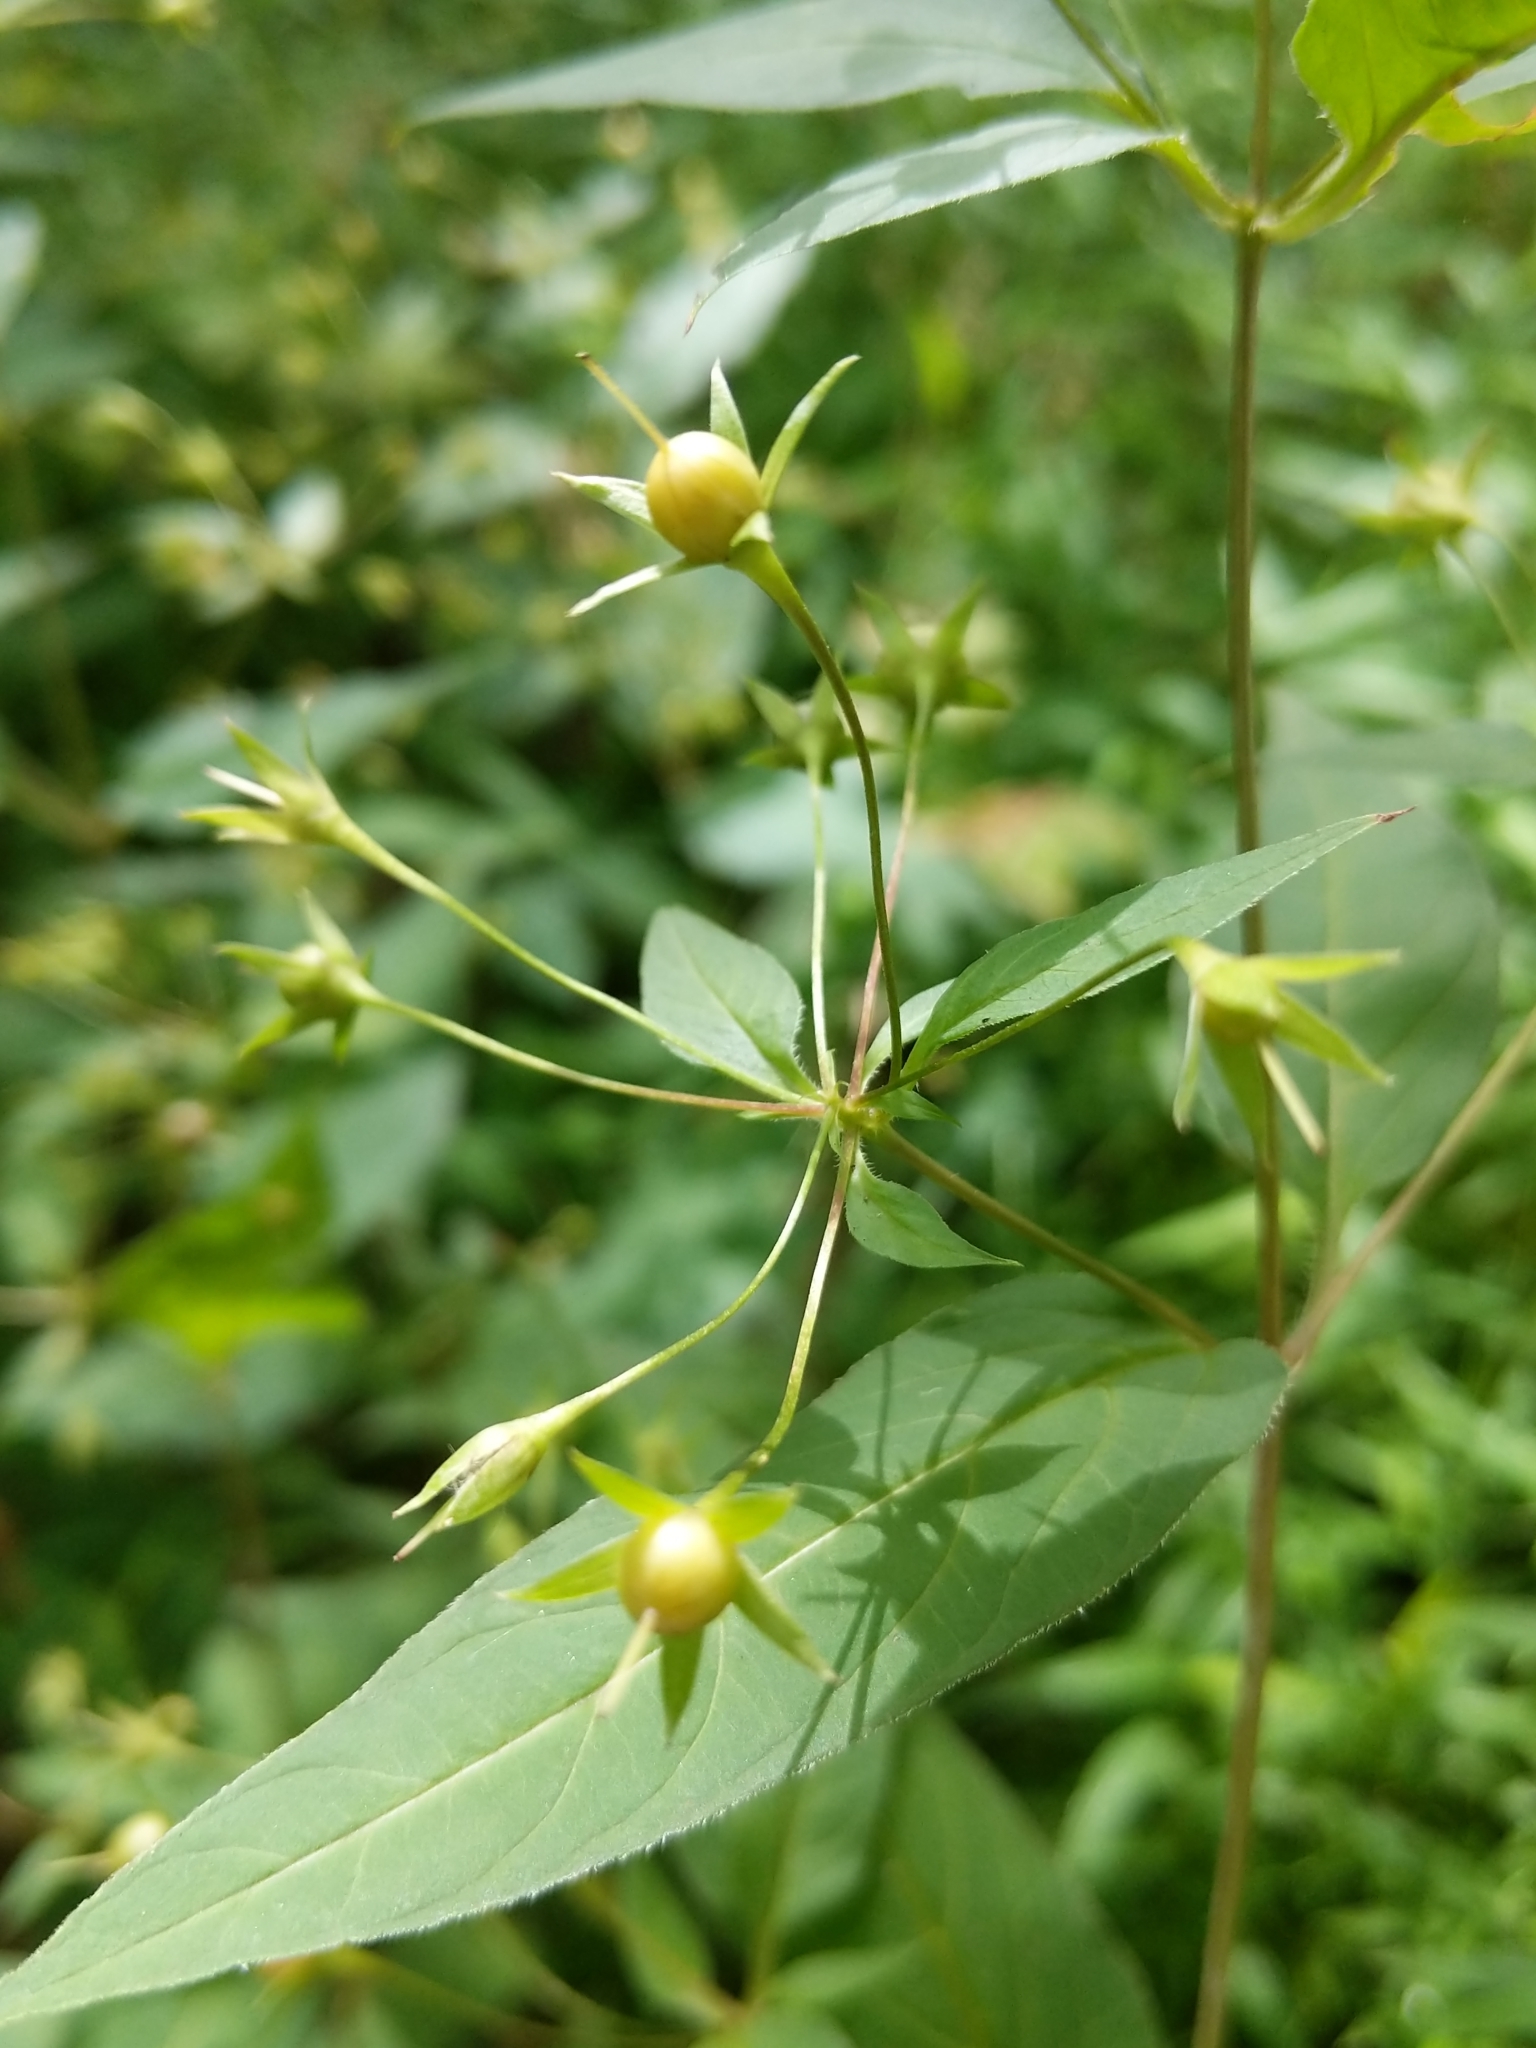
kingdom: Plantae
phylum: Tracheophyta
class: Magnoliopsida
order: Ericales
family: Primulaceae
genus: Lysimachia
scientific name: Lysimachia ciliata
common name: Fringed loosestrife
